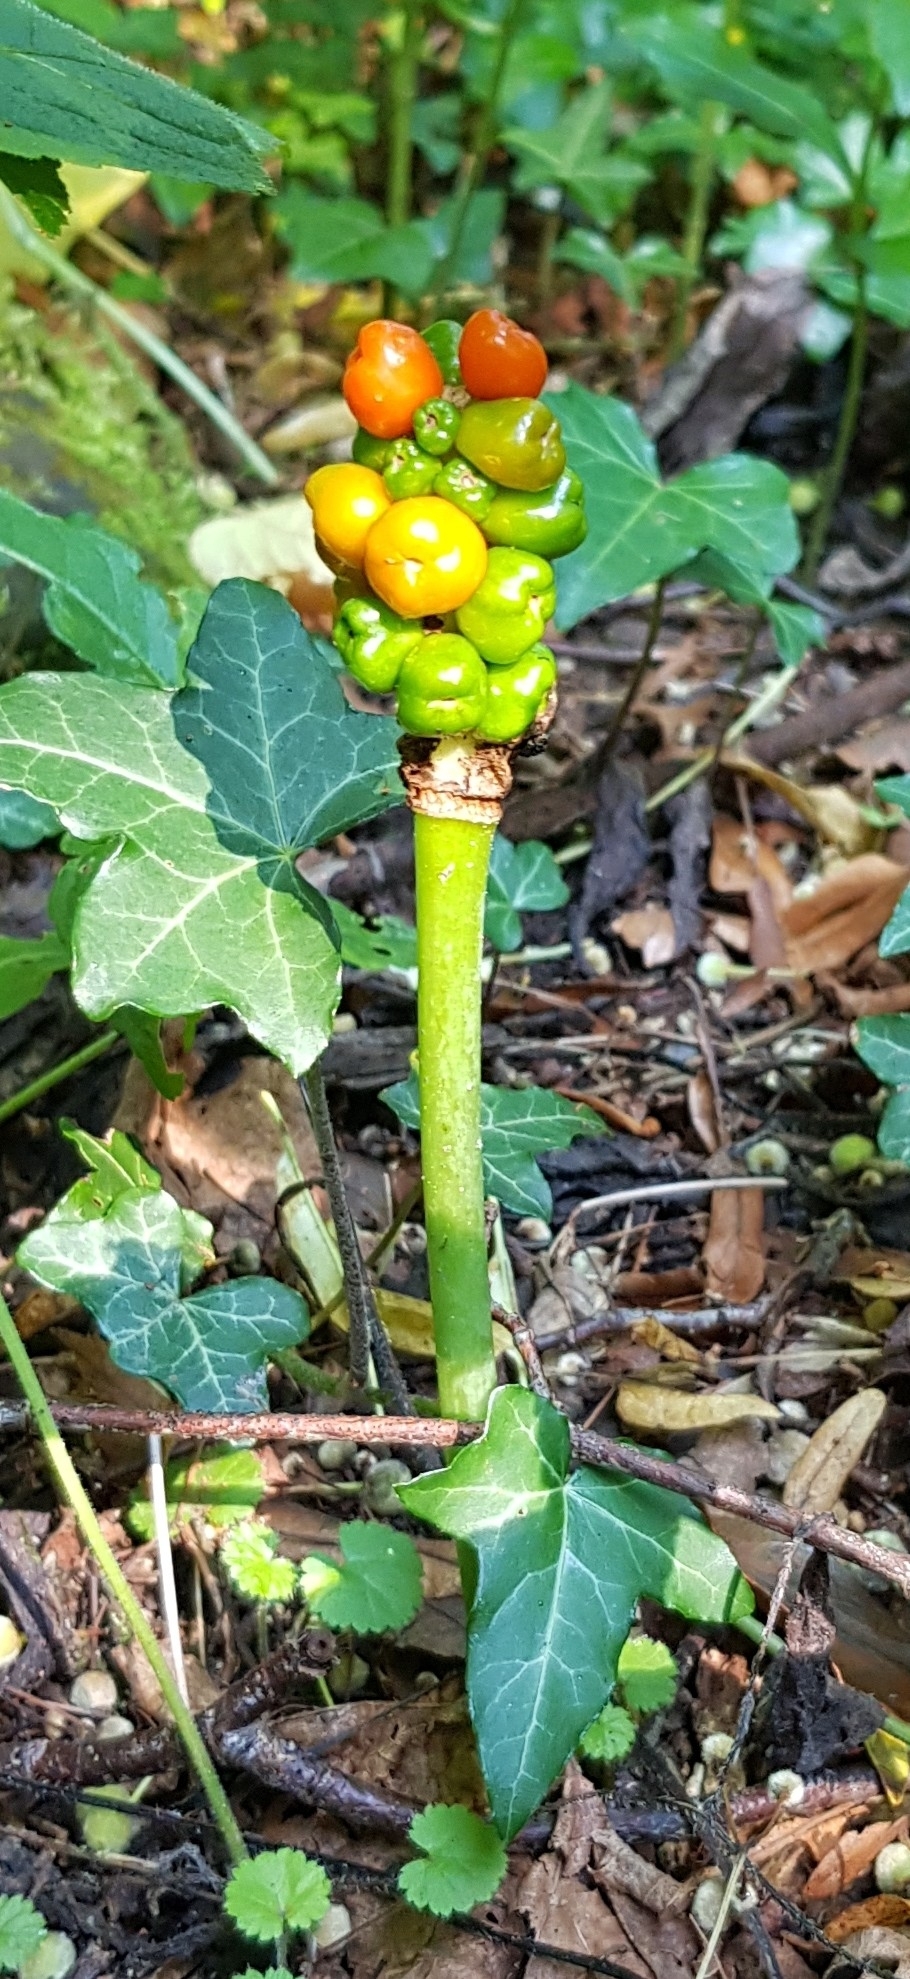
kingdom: Plantae
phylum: Tracheophyta
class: Liliopsida
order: Alismatales
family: Araceae
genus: Arum
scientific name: Arum maculatum
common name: Lords-and-ladies
